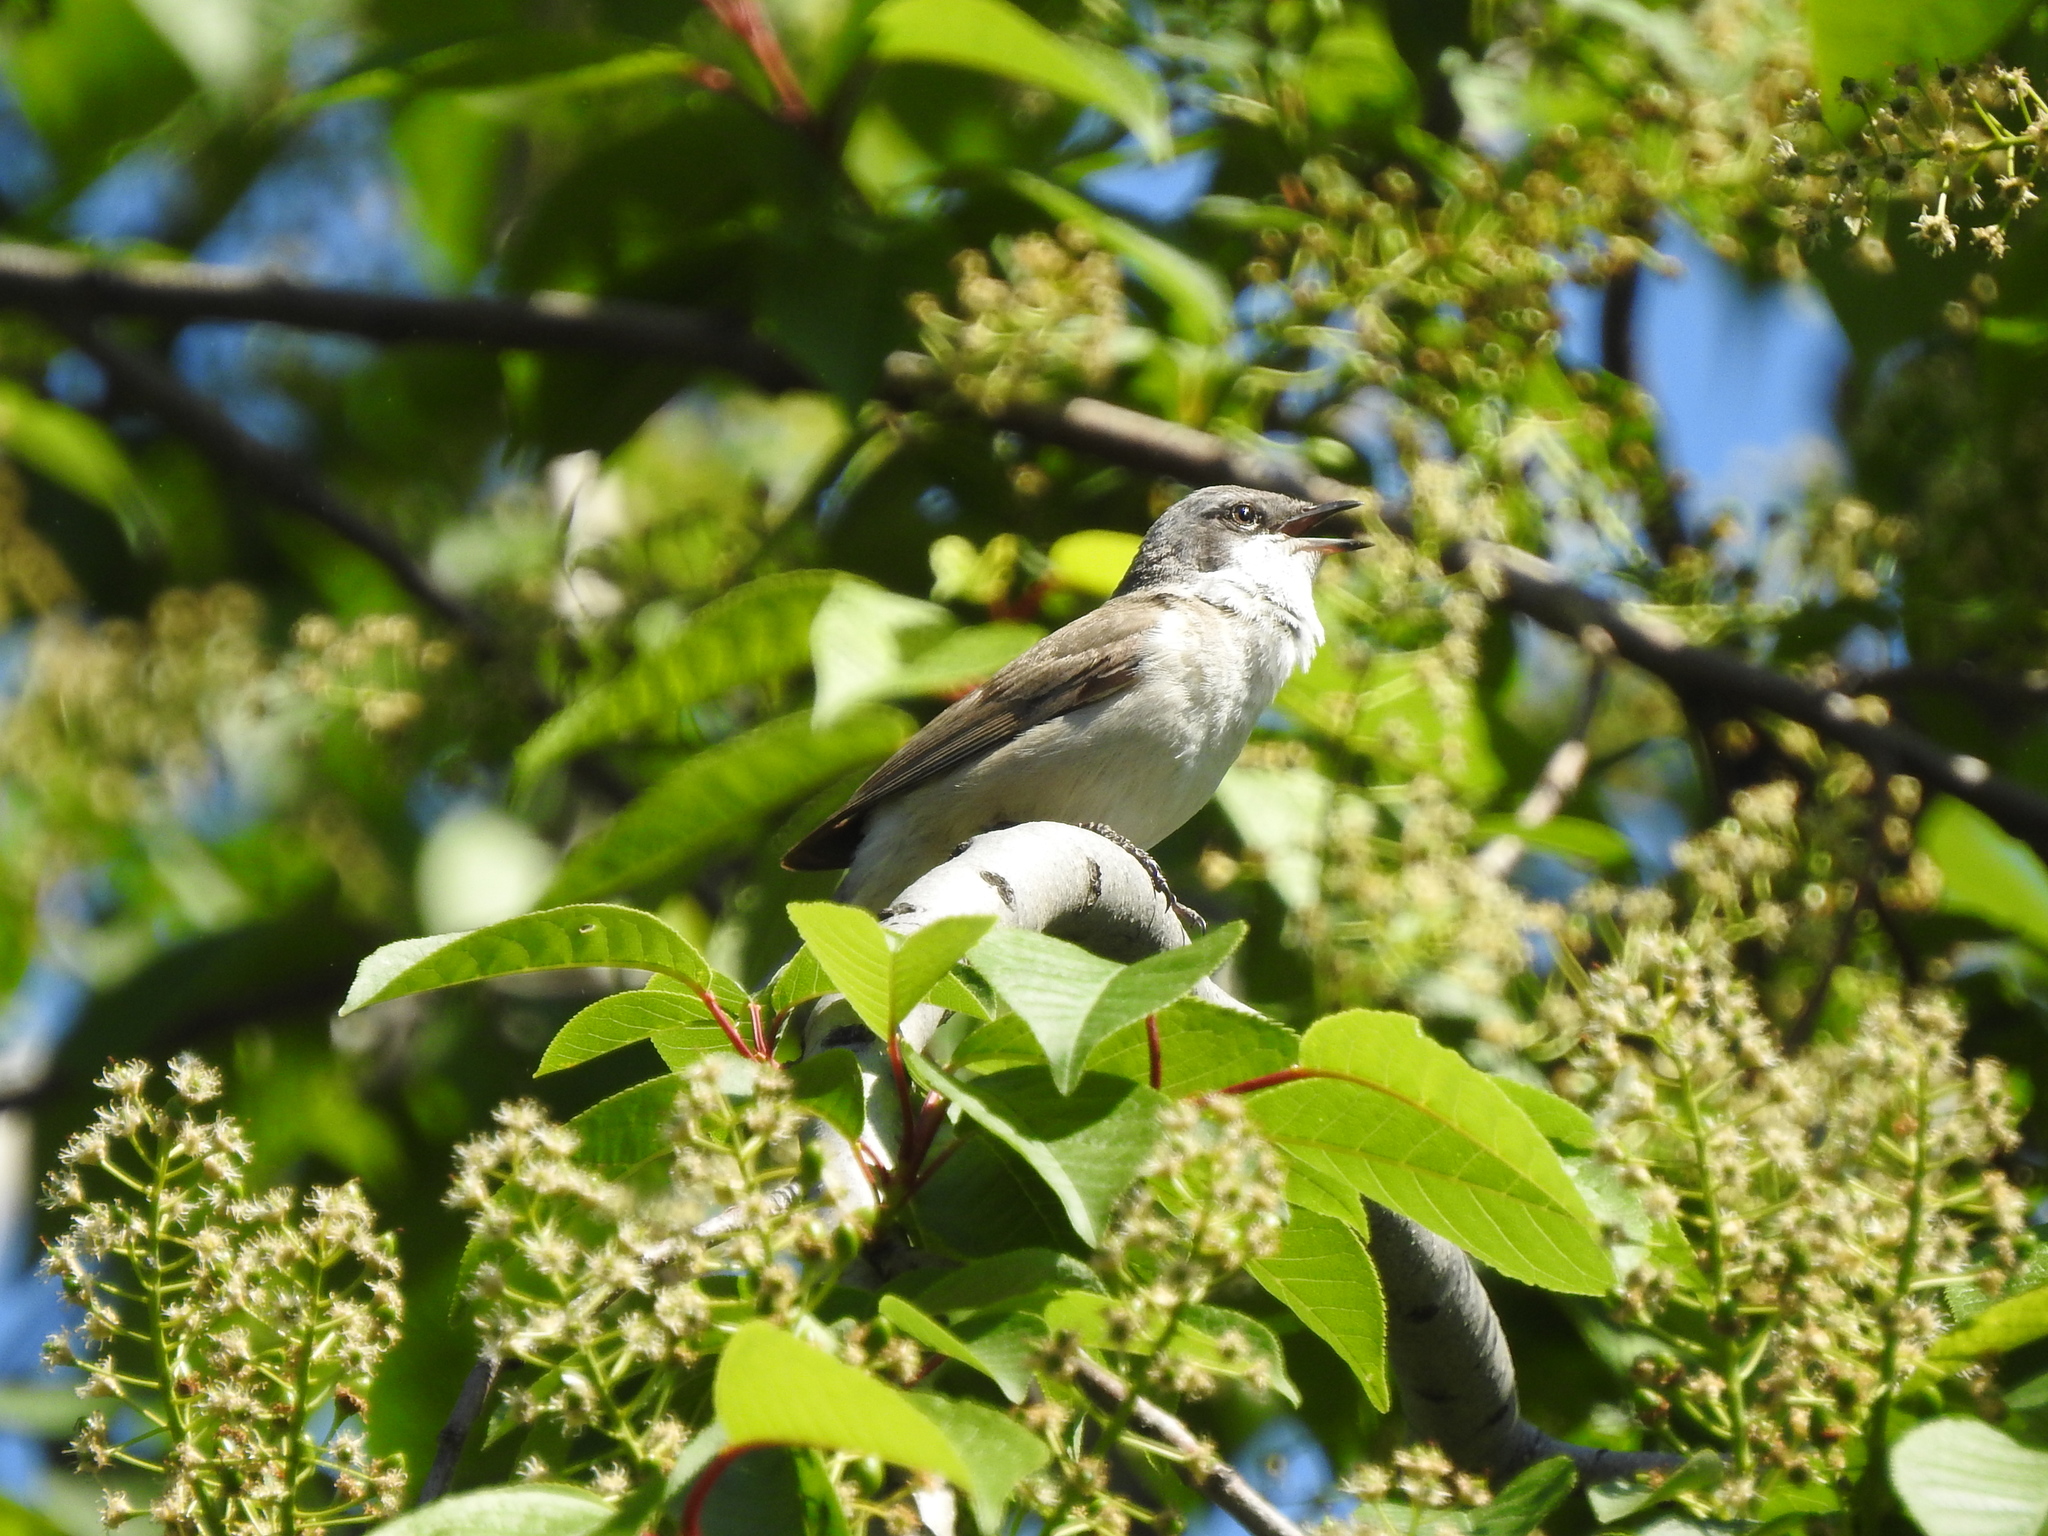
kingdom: Animalia
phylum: Chordata
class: Aves
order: Passeriformes
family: Sylviidae
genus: Sylvia
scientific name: Sylvia curruca
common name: Lesser whitethroat
